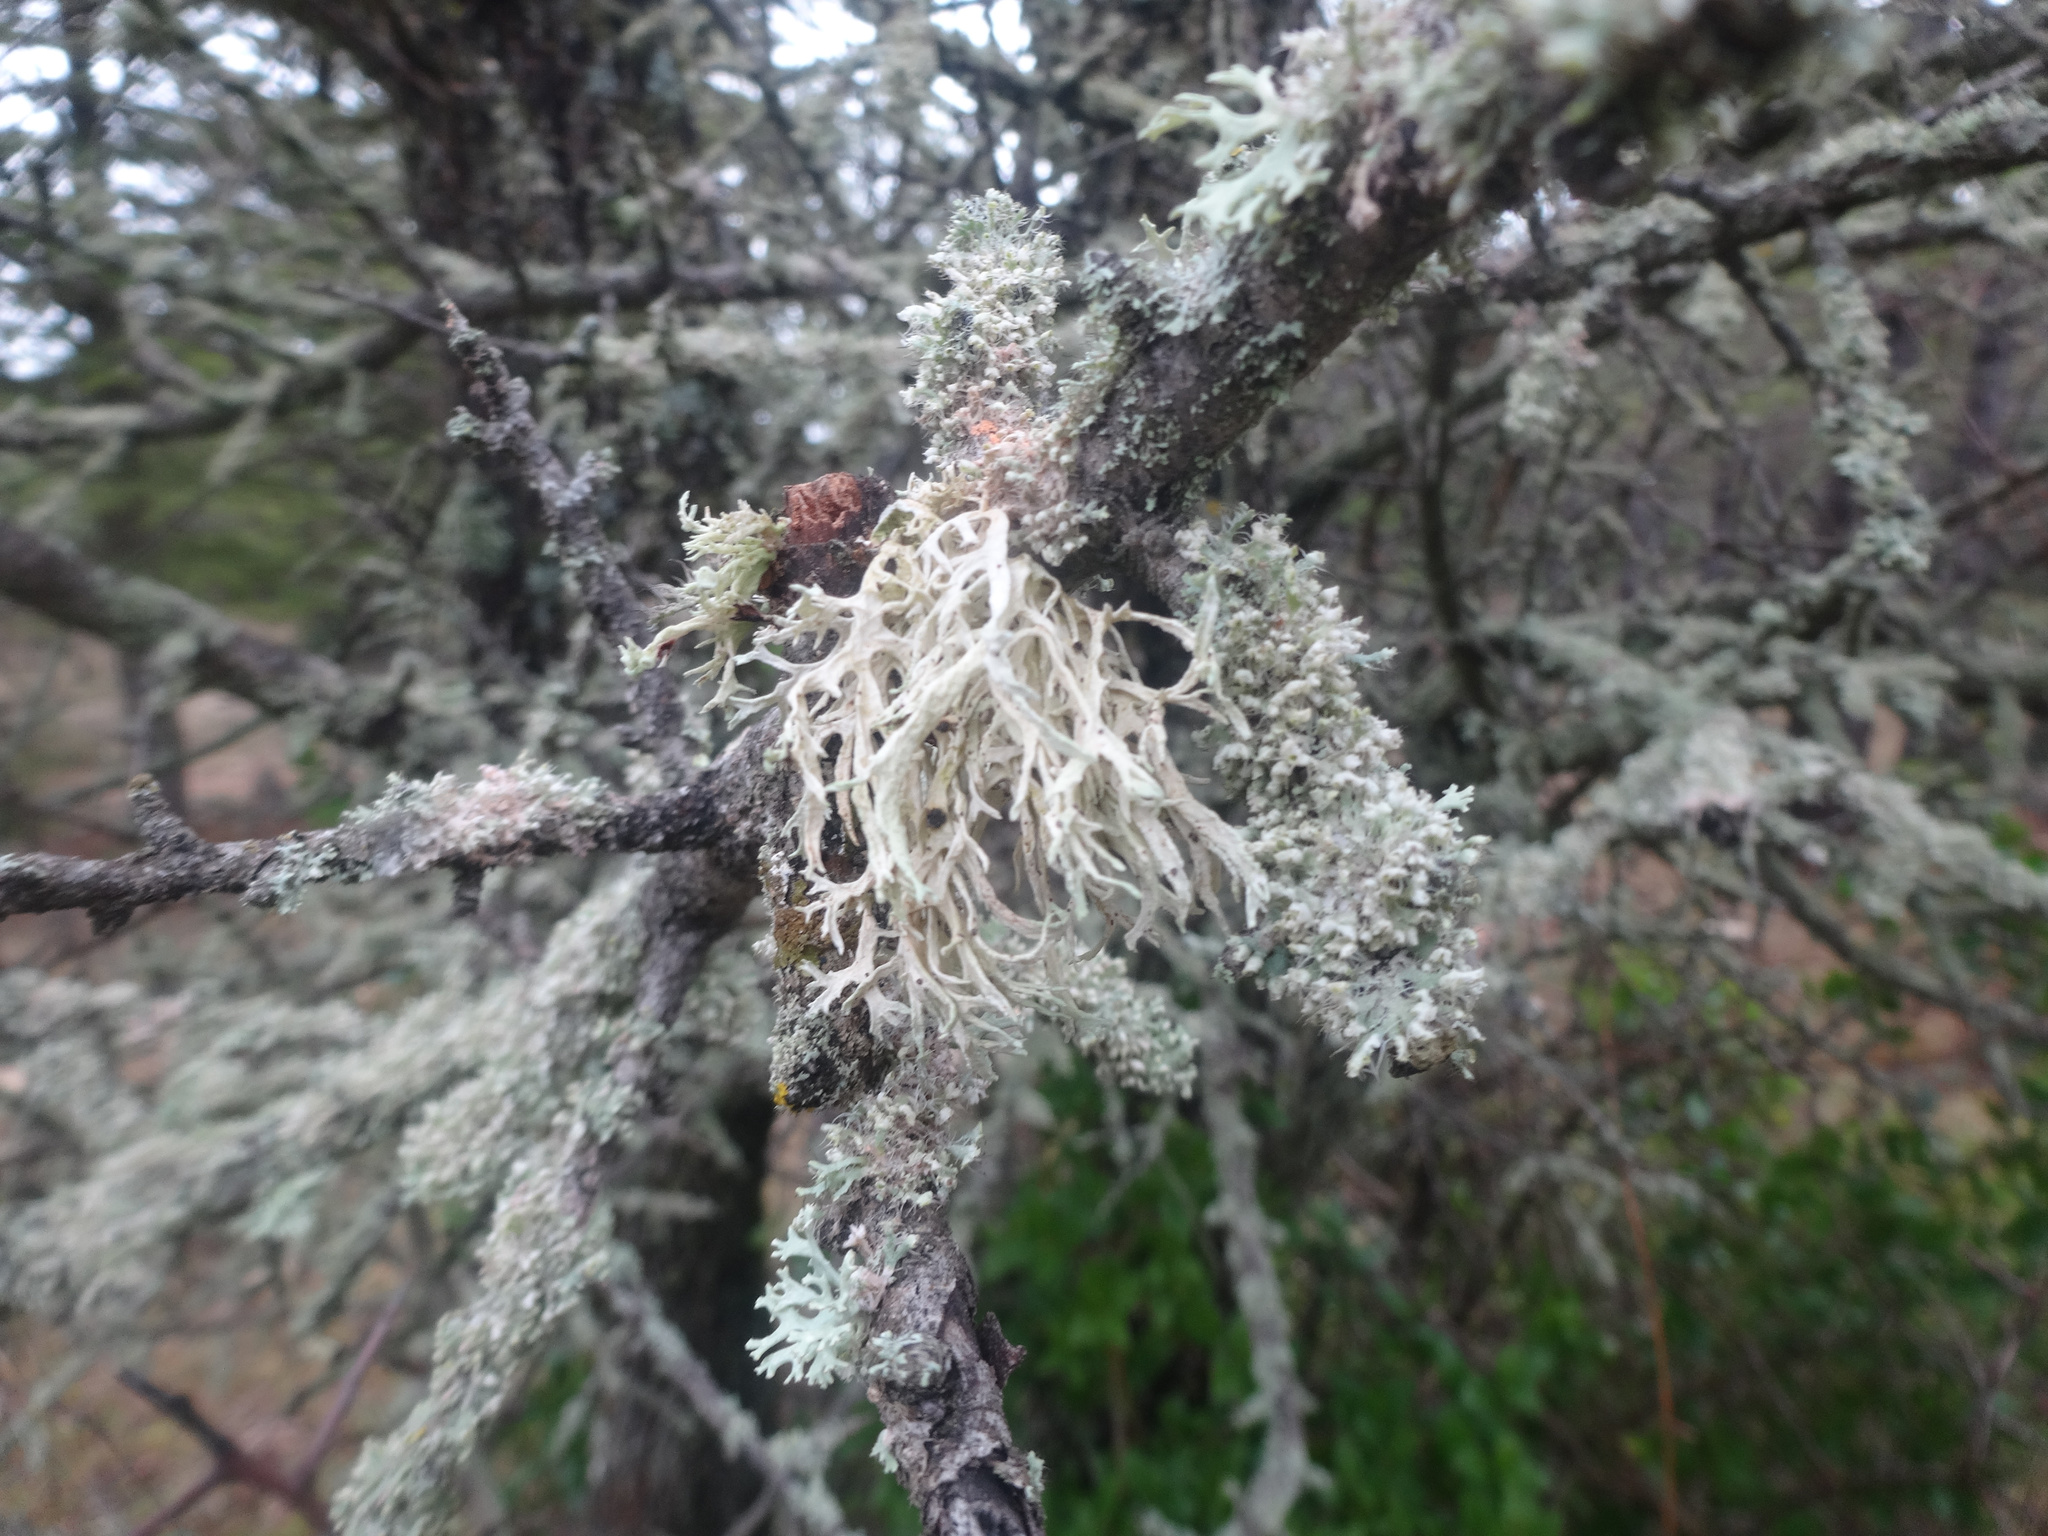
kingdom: Fungi
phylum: Ascomycota
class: Lecanoromycetes
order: Lecanorales
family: Parmeliaceae
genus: Evernia
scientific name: Evernia prunastri
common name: Oak moss
